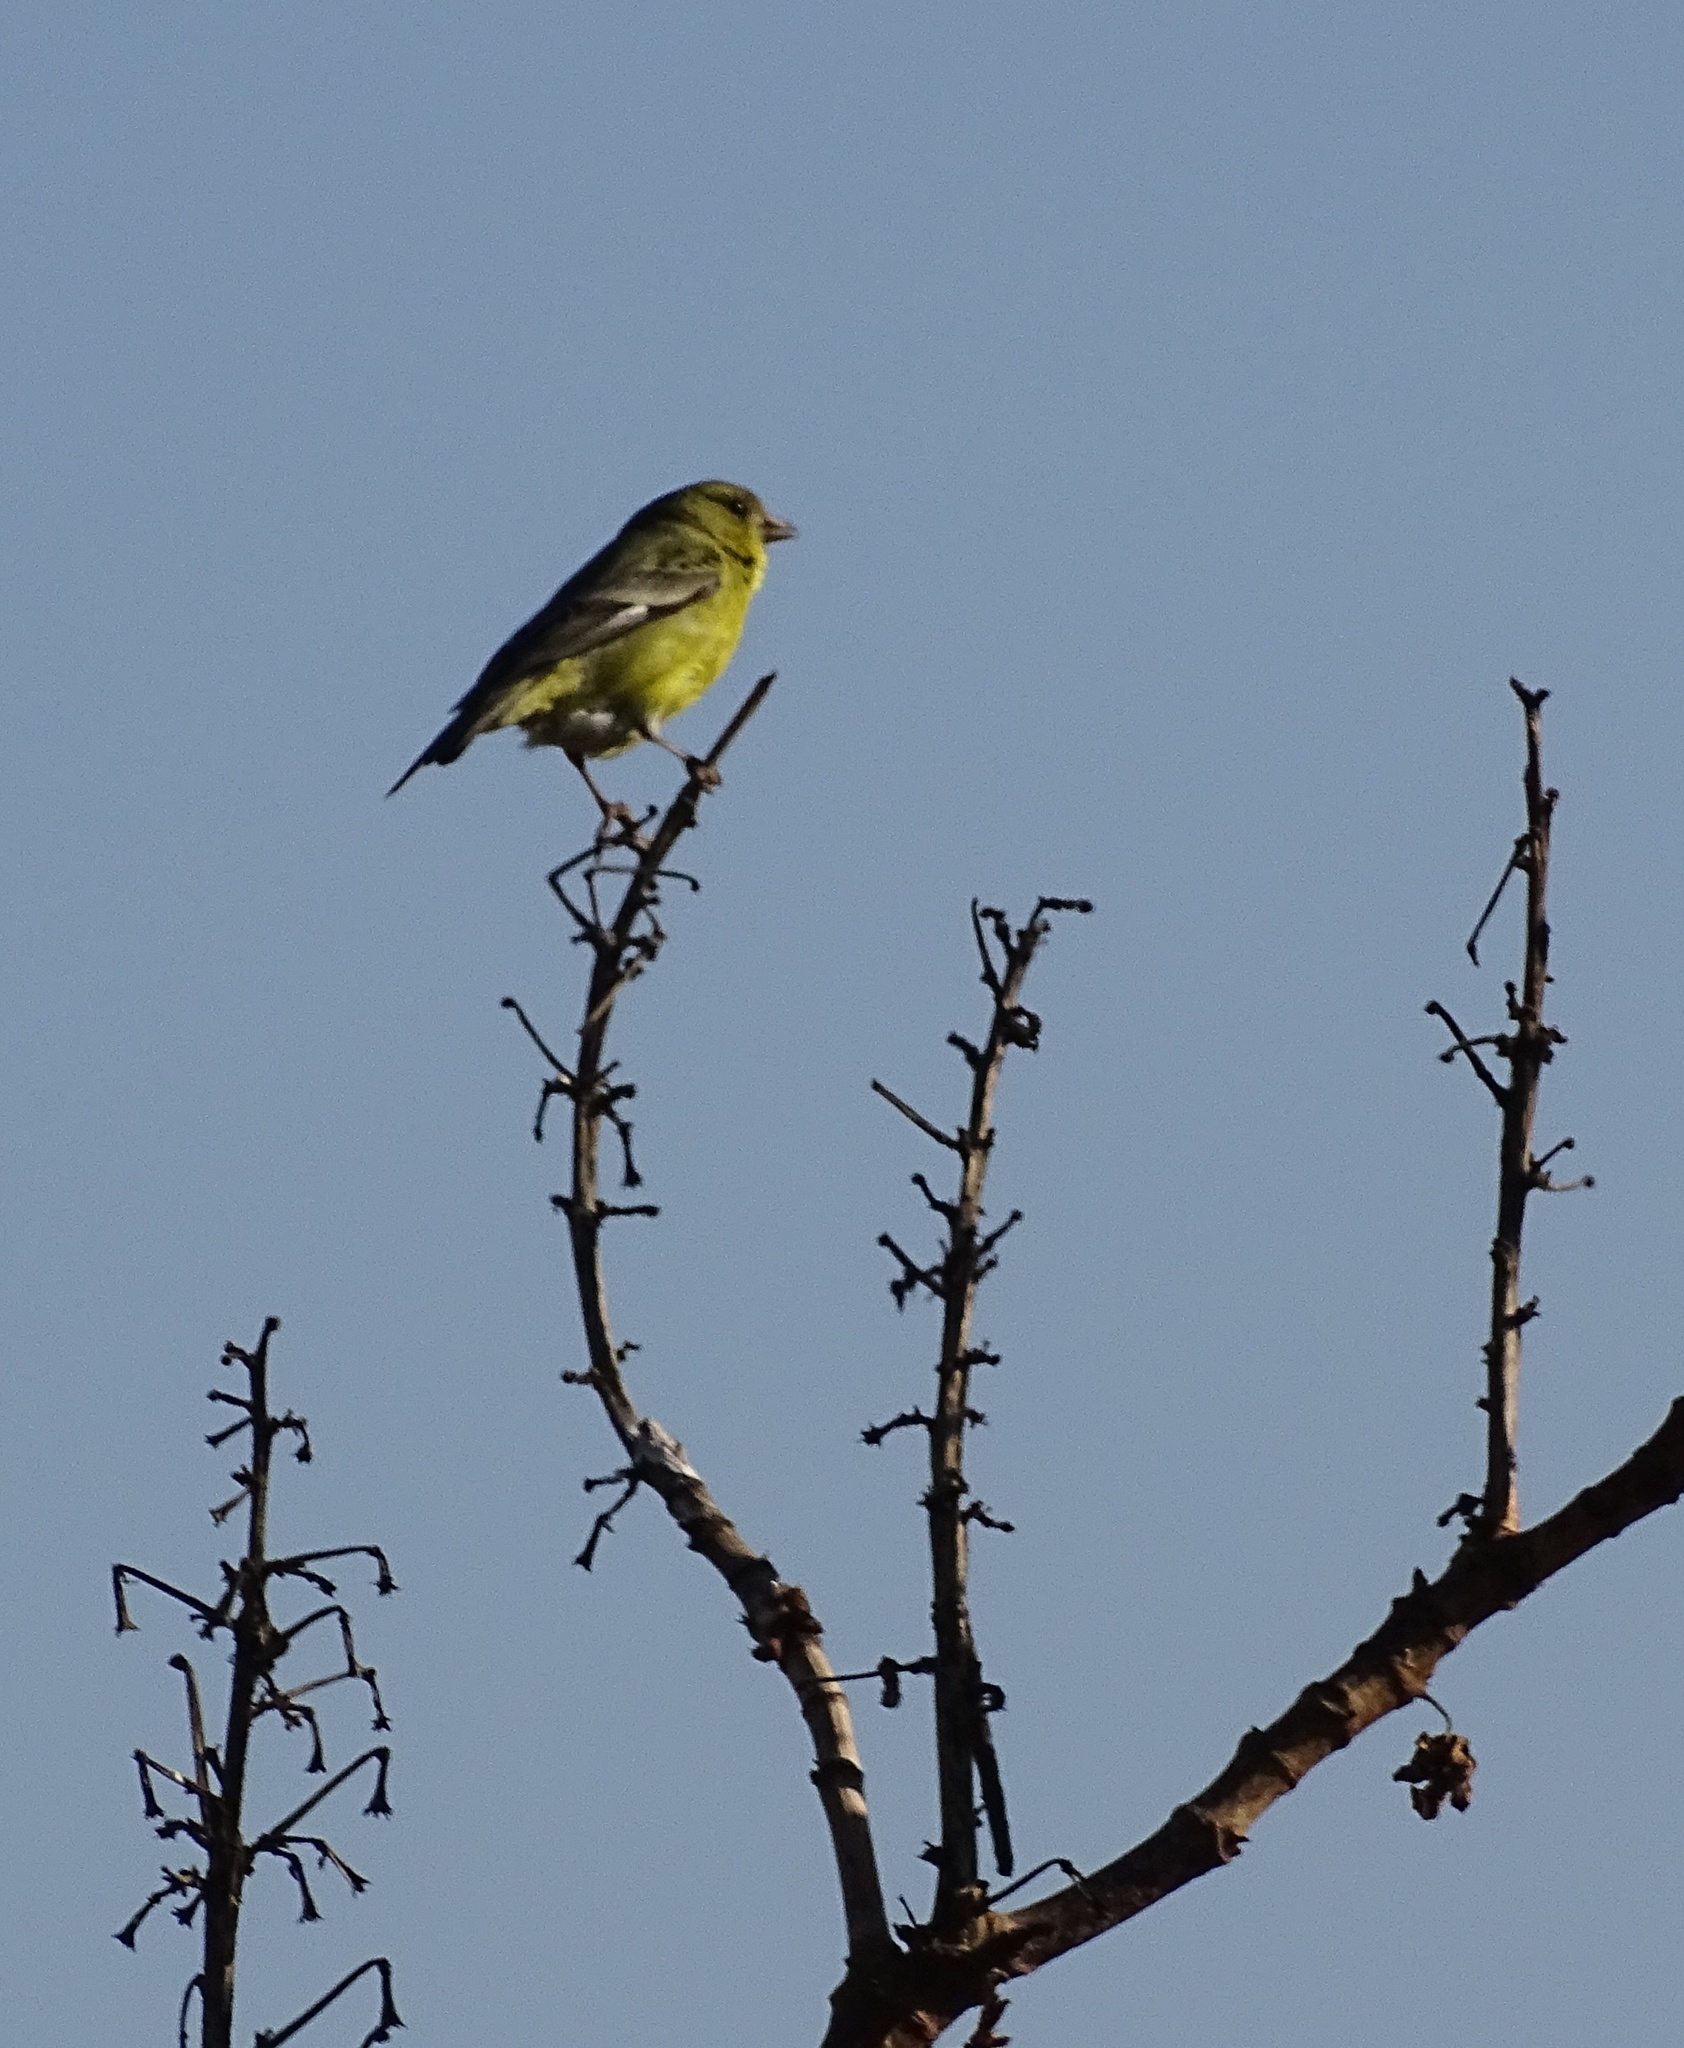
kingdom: Animalia
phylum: Chordata
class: Aves
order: Passeriformes
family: Fringillidae
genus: Spinus
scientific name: Spinus psaltria
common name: Lesser goldfinch
